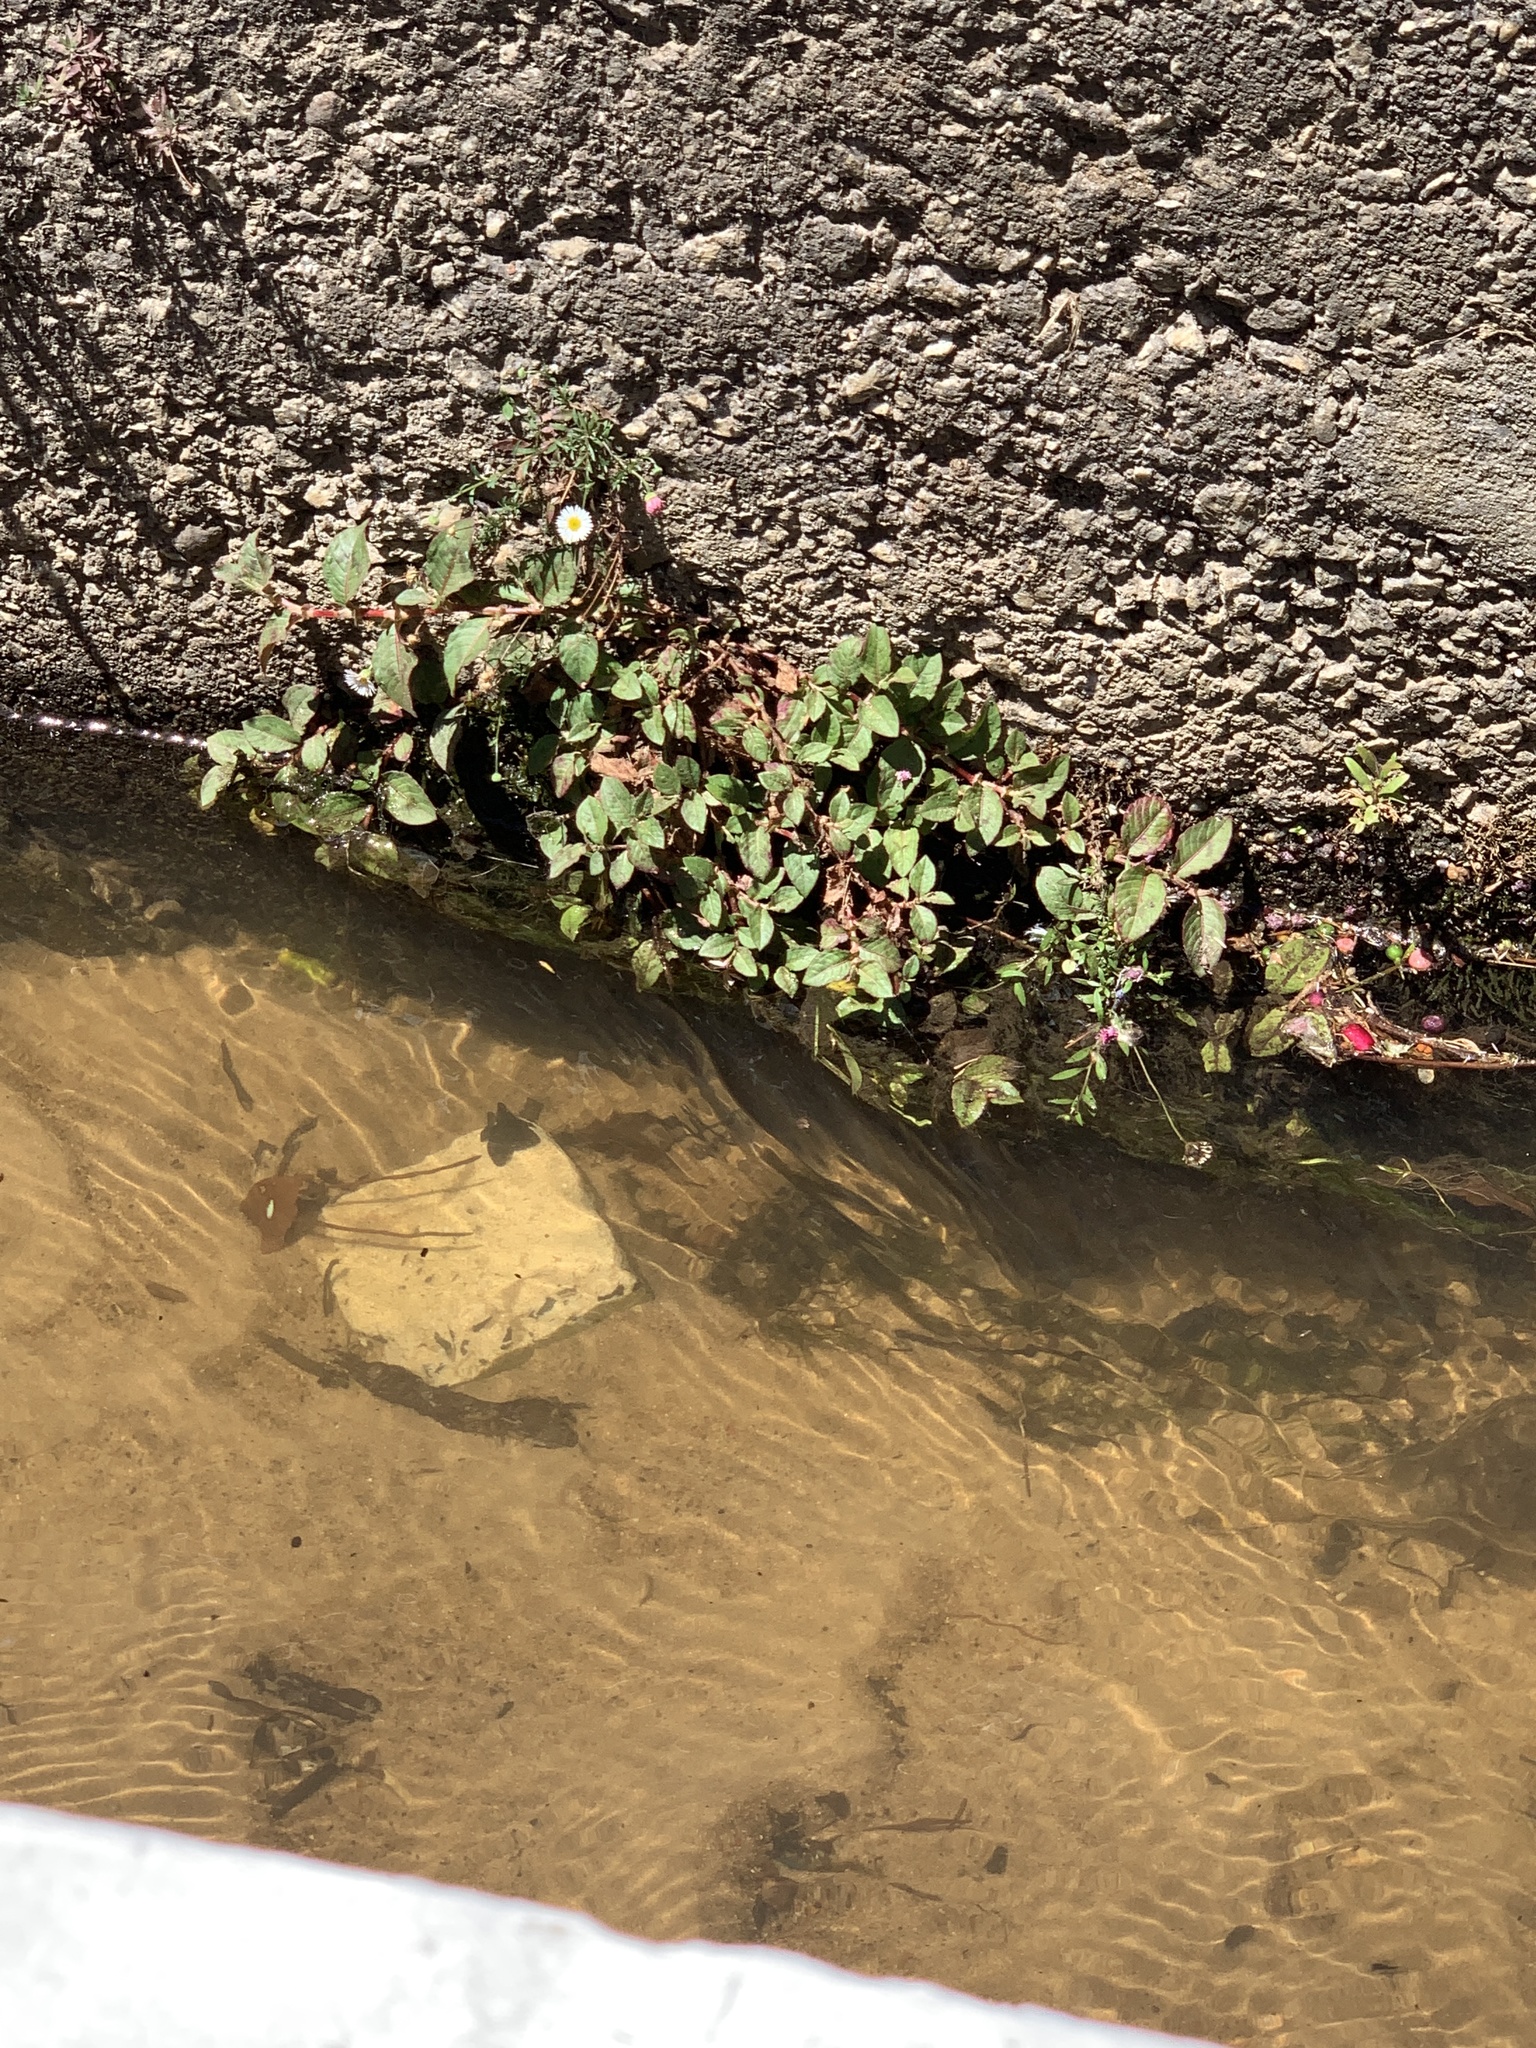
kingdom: Plantae
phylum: Tracheophyta
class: Magnoliopsida
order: Caryophyllales
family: Polygonaceae
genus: Persicaria
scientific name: Persicaria capitata
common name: Pinkhead smartweed
